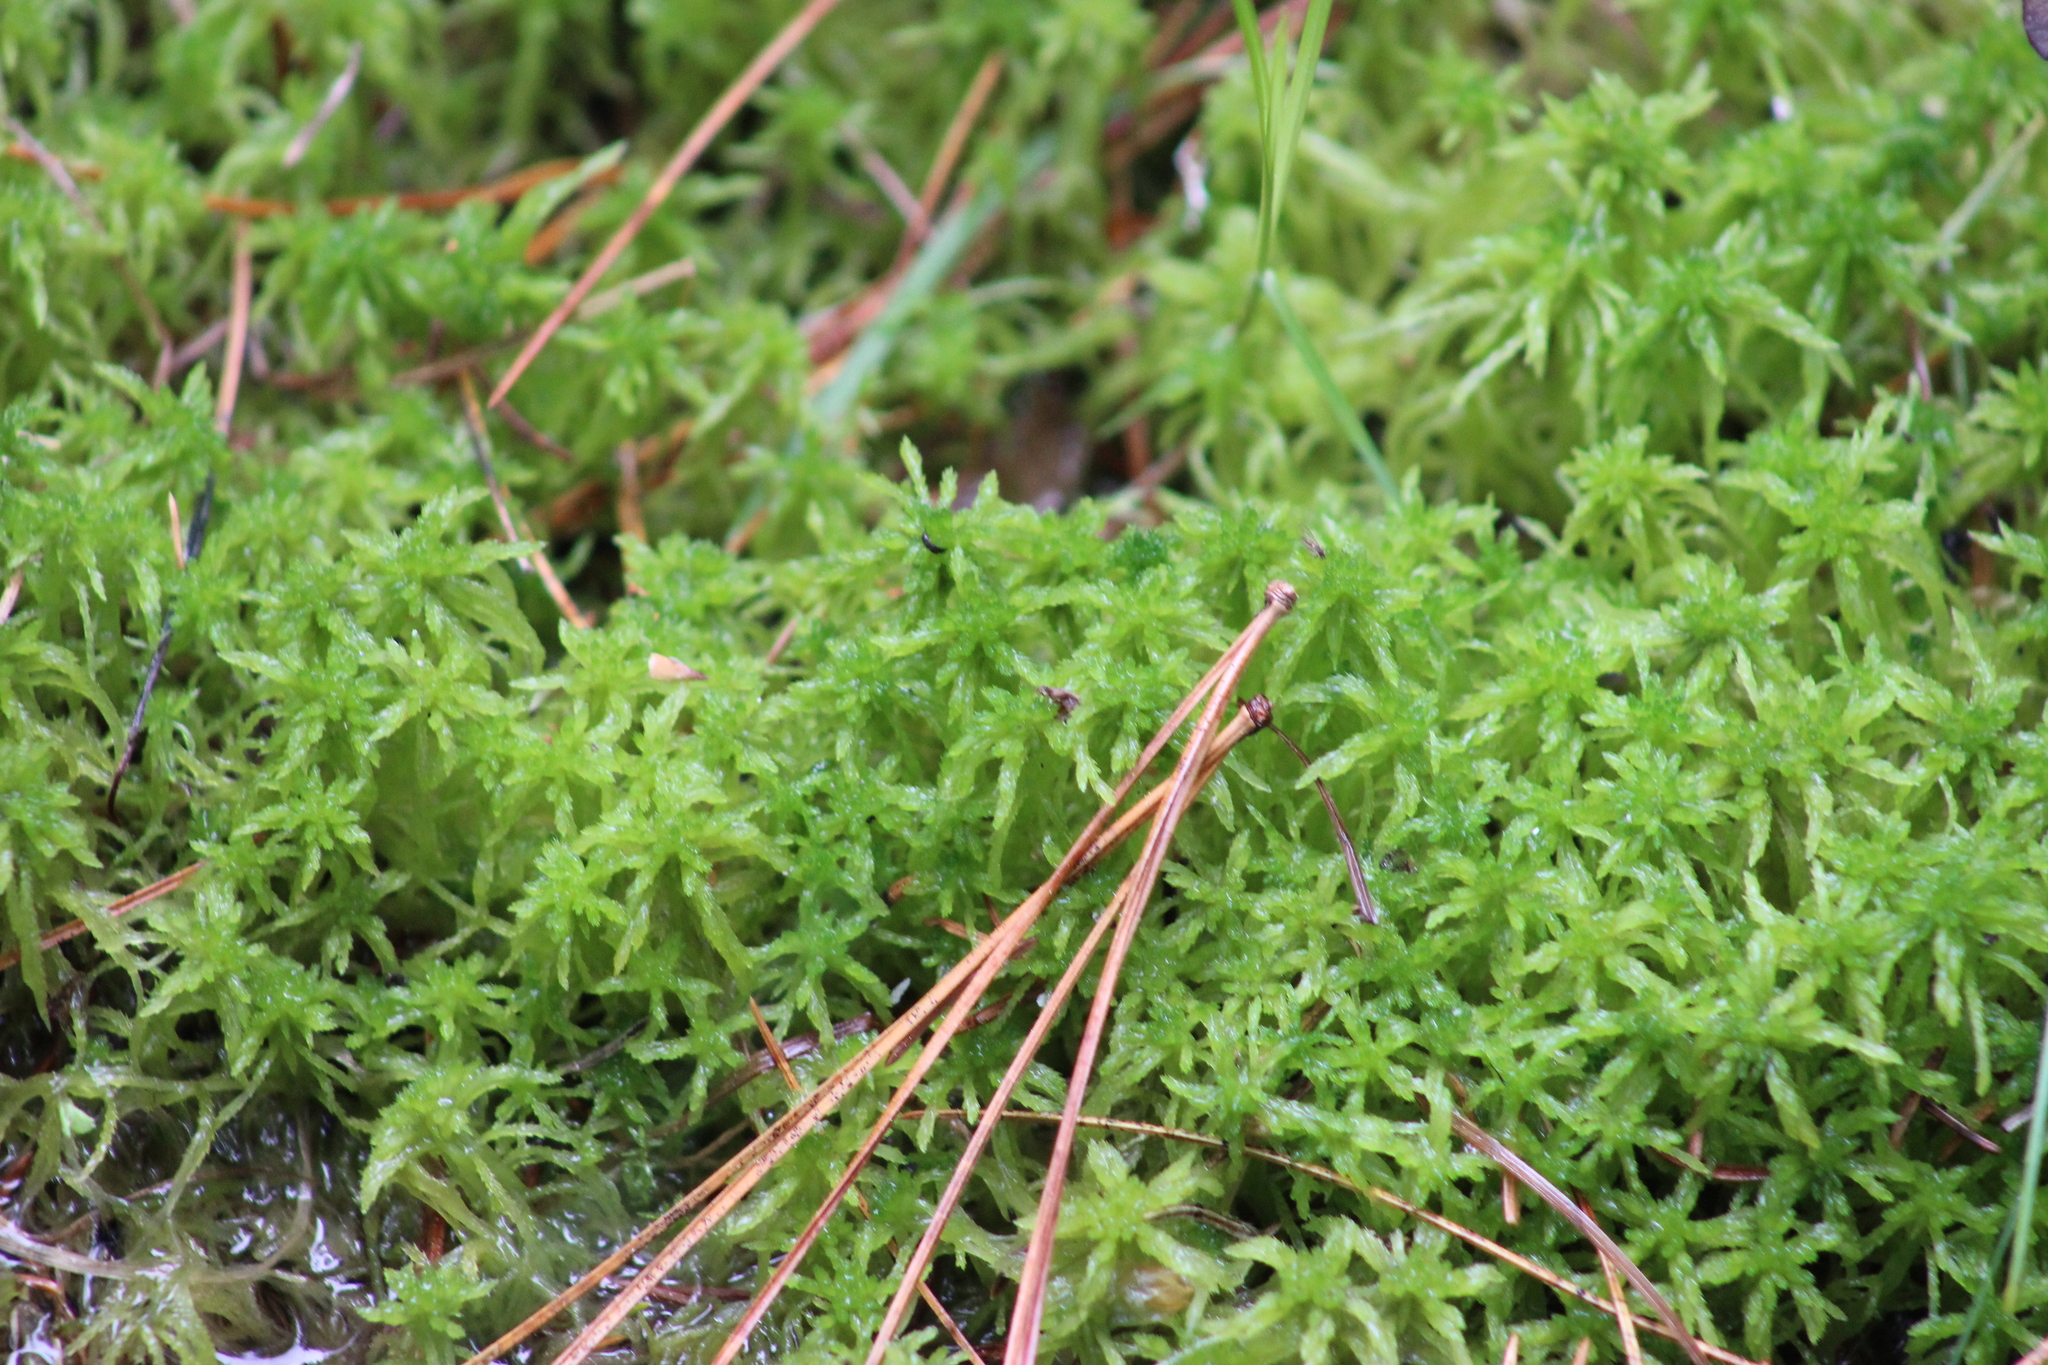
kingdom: Plantae
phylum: Bryophyta
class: Sphagnopsida
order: Sphagnales
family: Sphagnaceae
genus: Sphagnum
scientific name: Sphagnum fimbriatum
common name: Fringed peat moss
